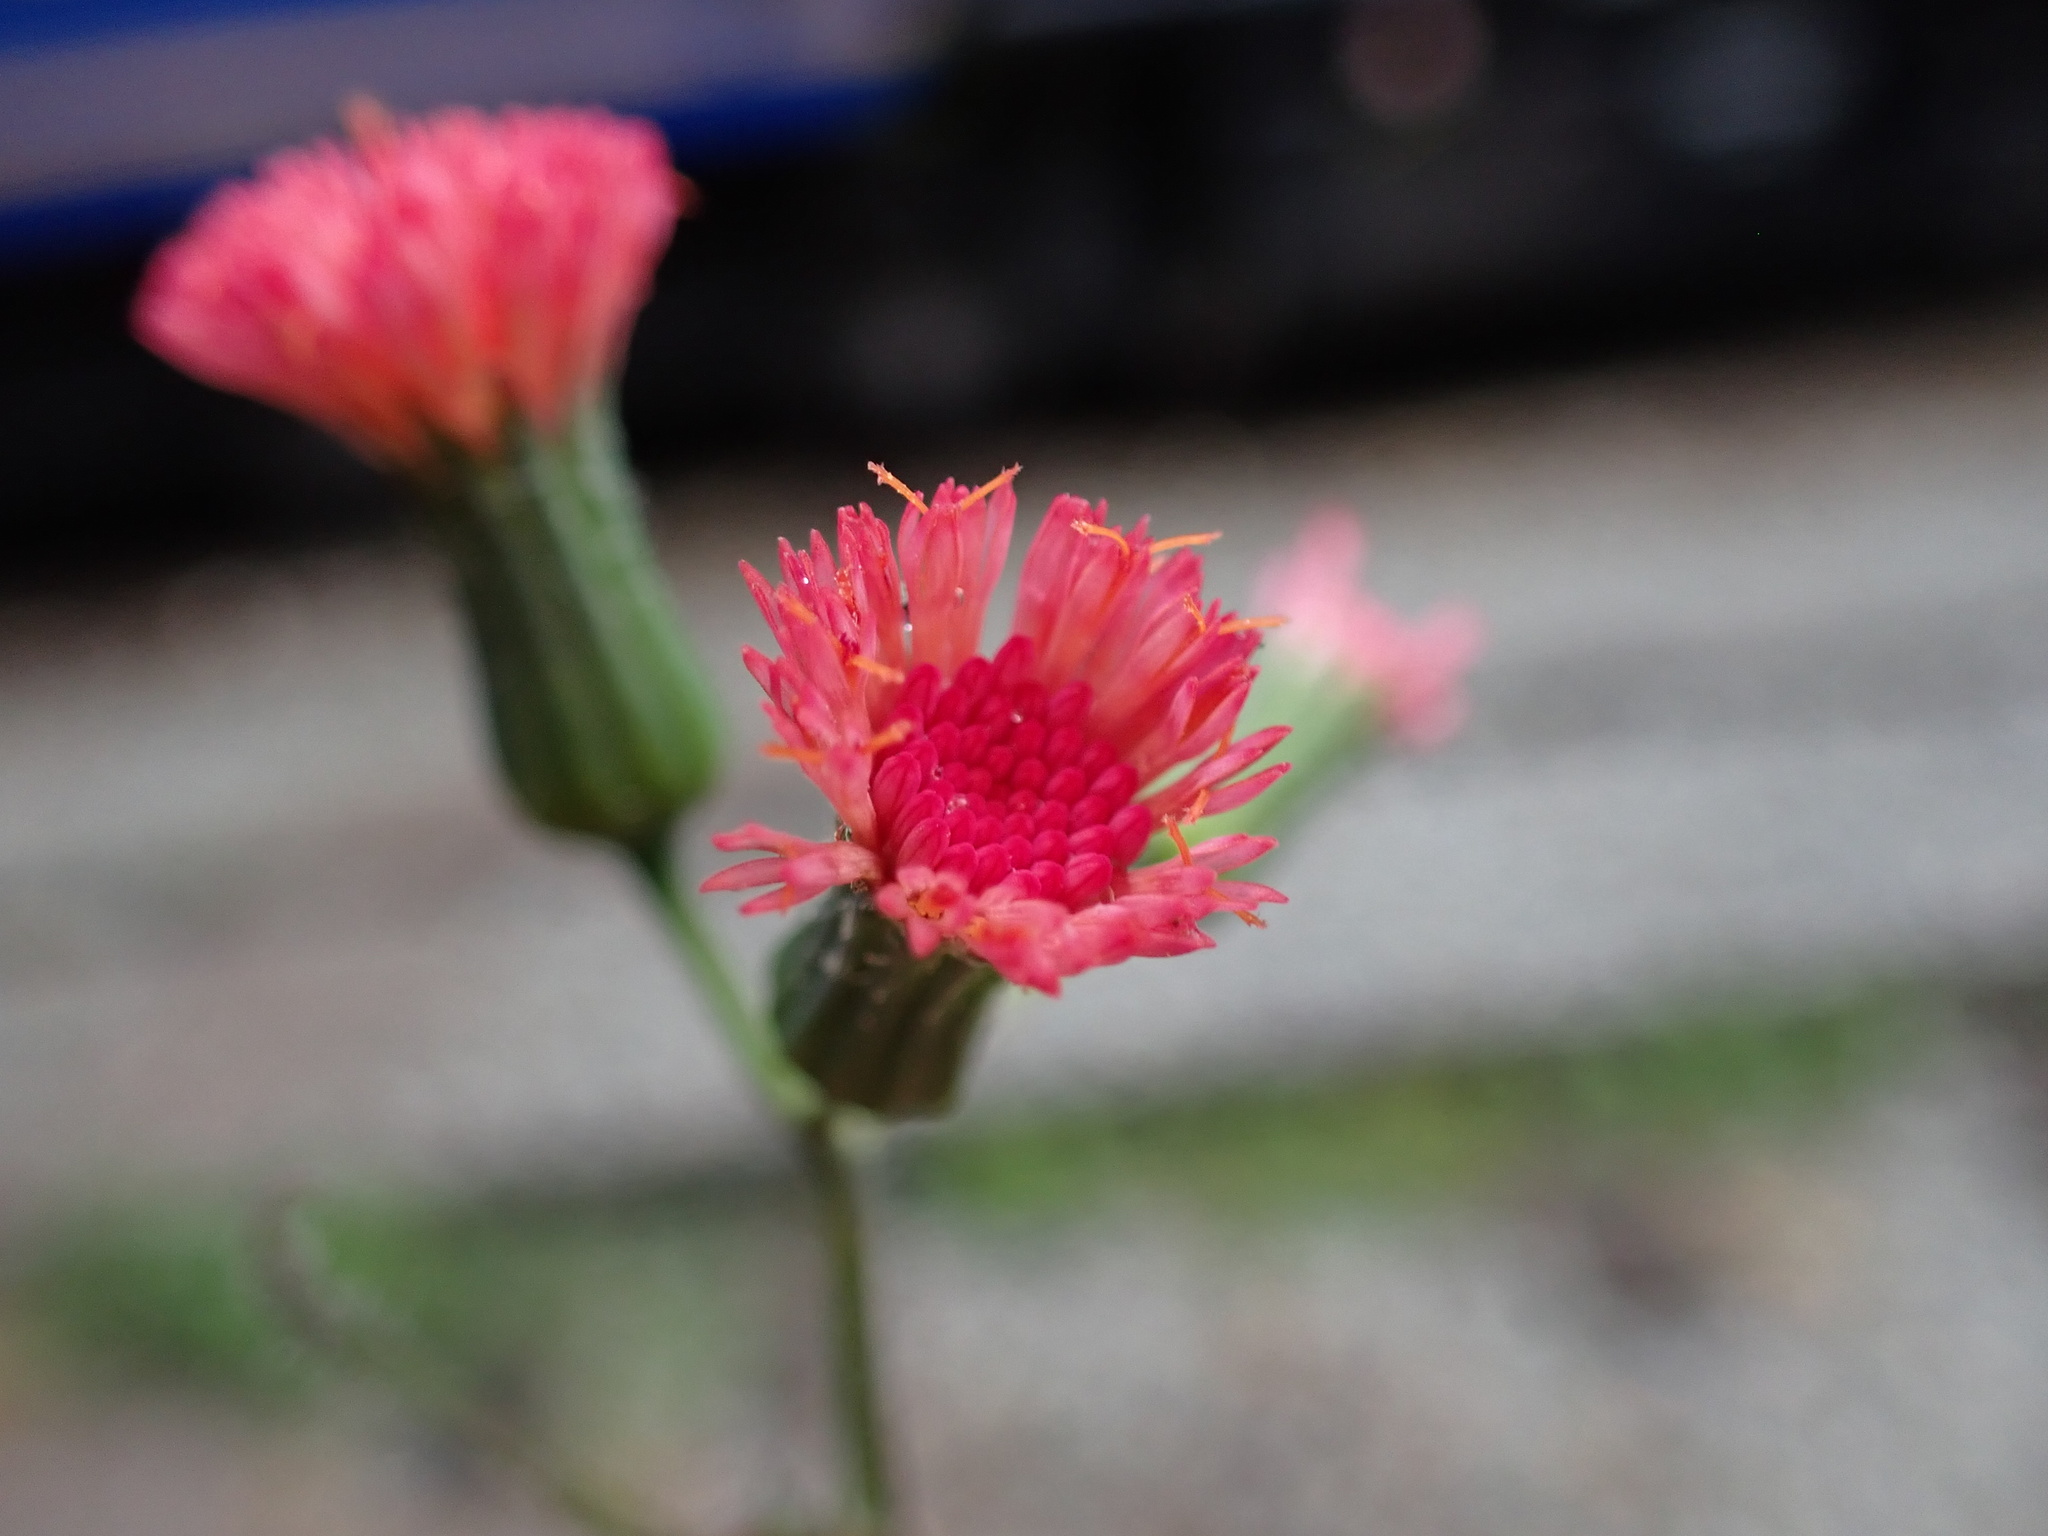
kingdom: Plantae
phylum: Tracheophyta
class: Magnoliopsida
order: Asterales
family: Asteraceae
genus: Emilia
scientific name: Emilia fosbergii
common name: Florida tasselflower
